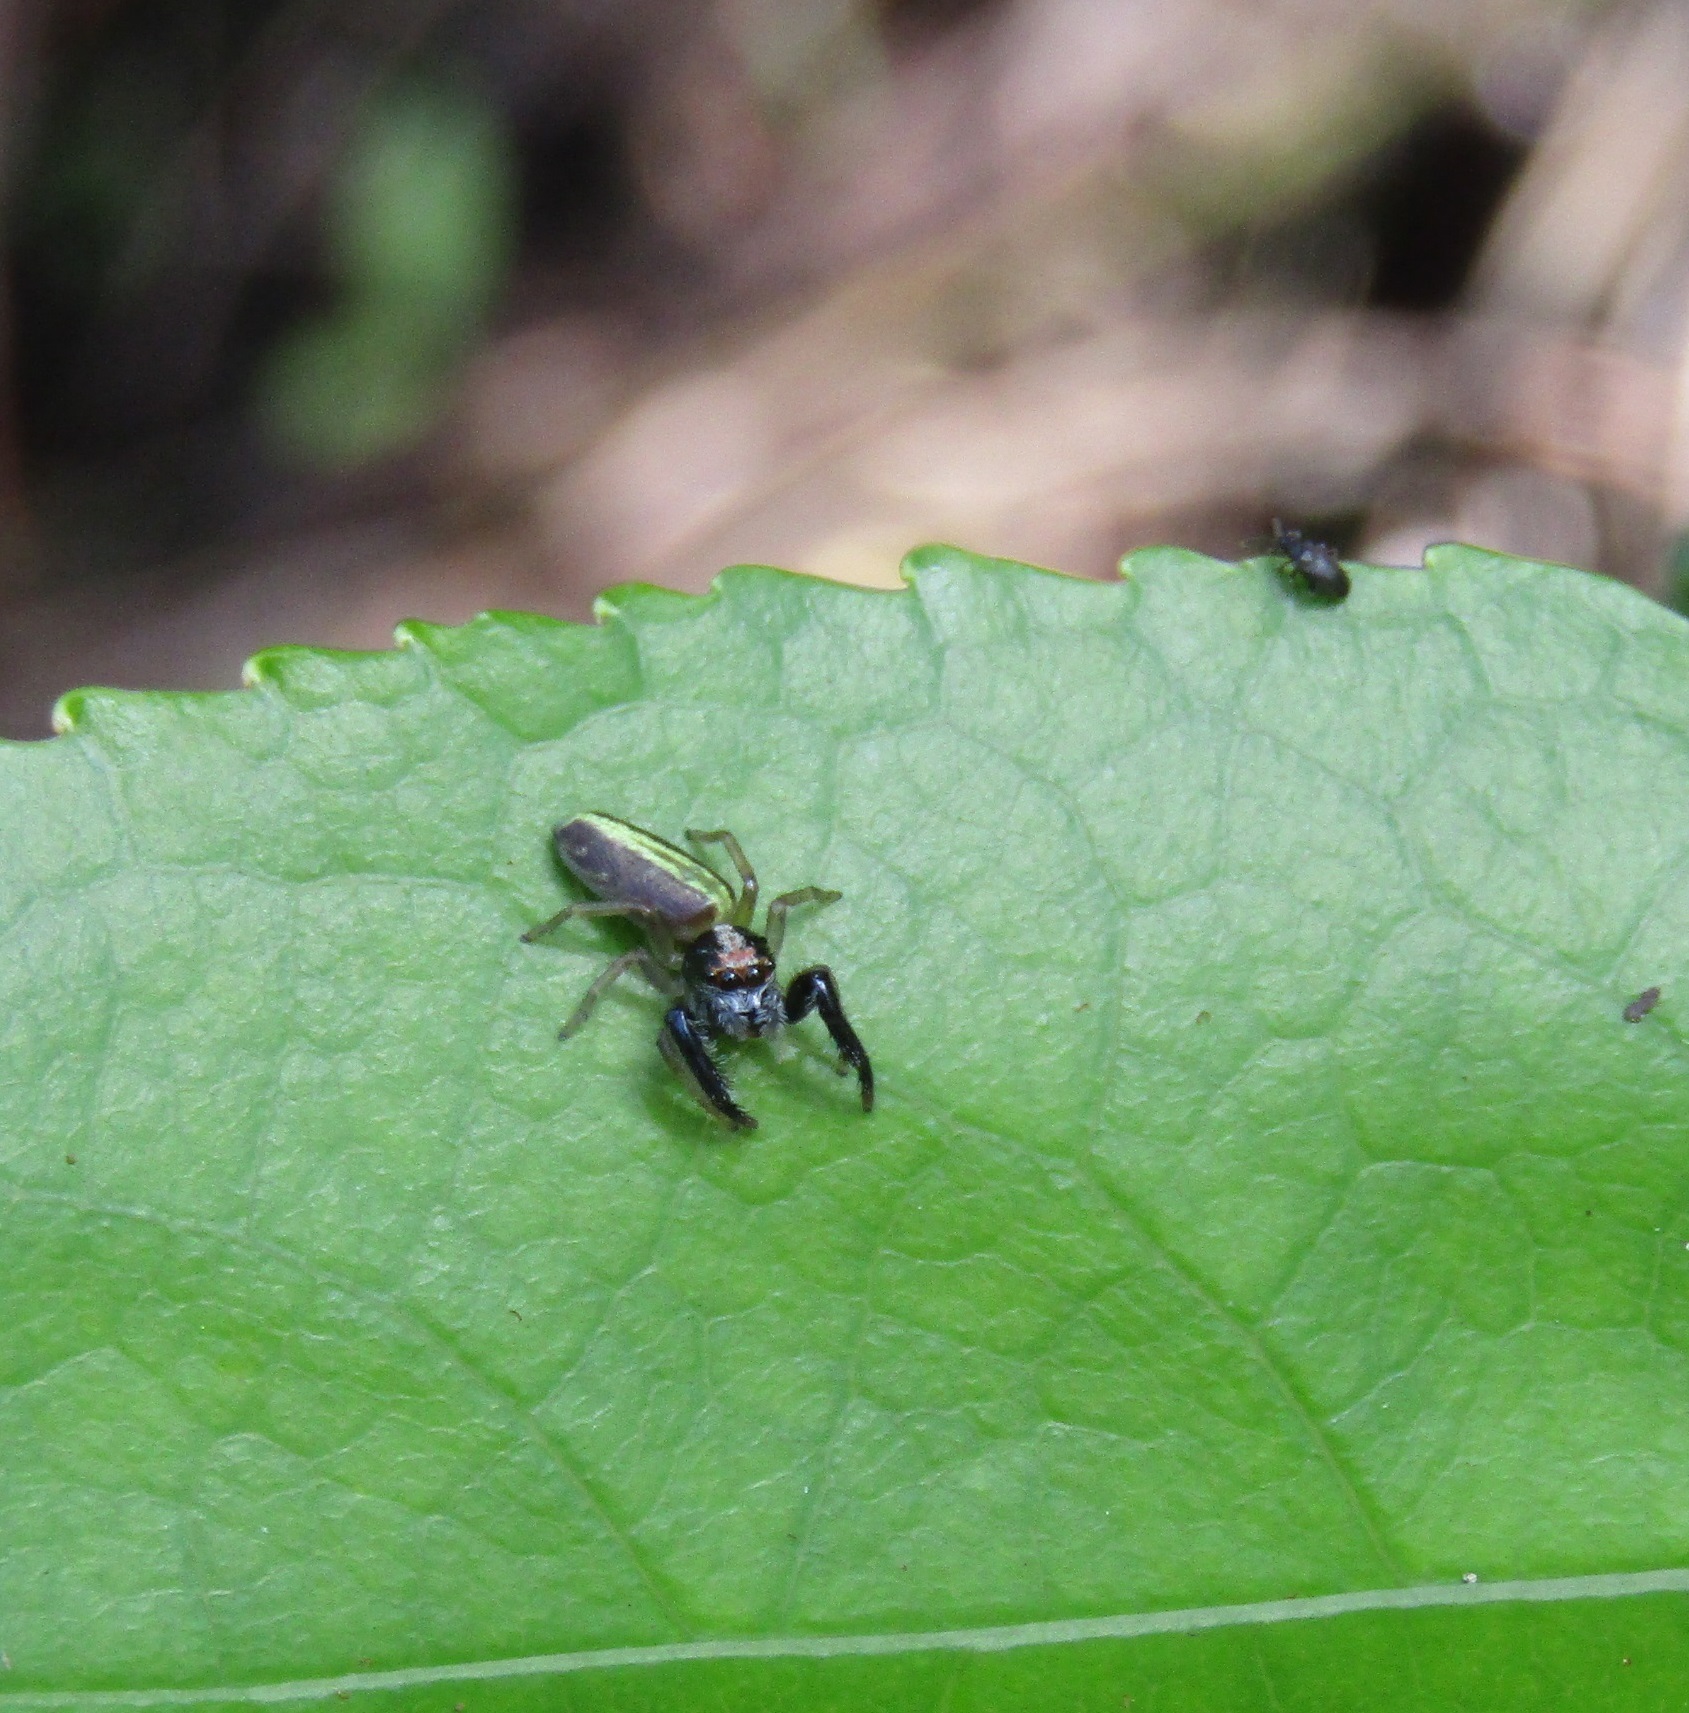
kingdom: Animalia
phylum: Arthropoda
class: Arachnida
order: Araneae
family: Salticidae
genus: Trite
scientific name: Trite planiceps
